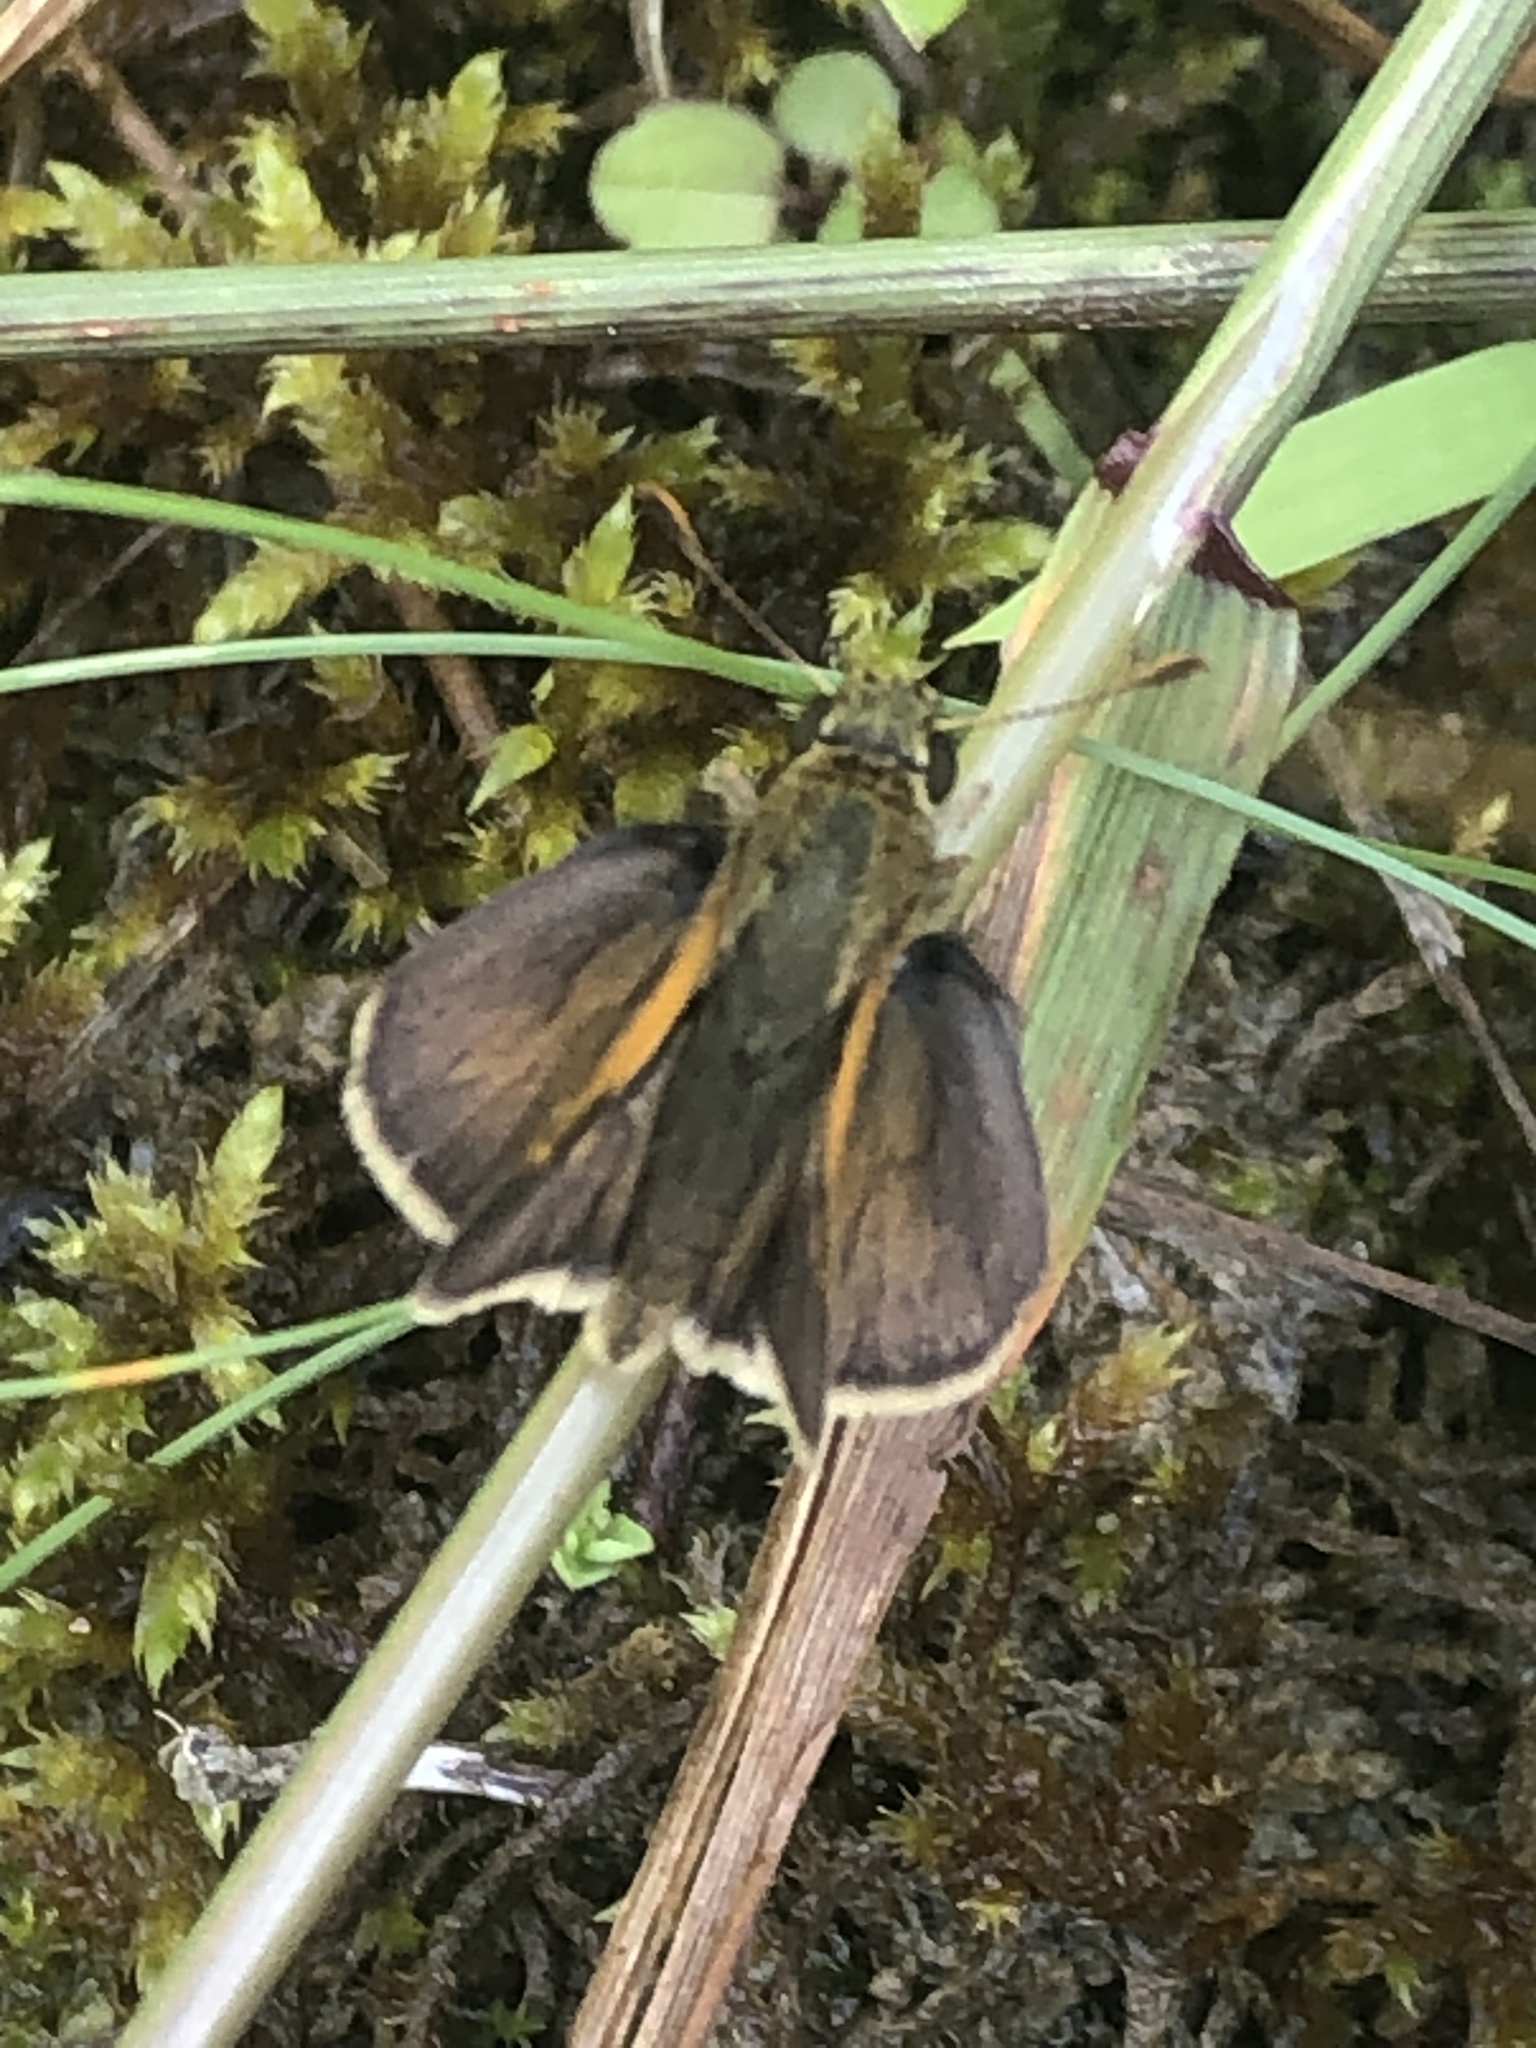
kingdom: Animalia
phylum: Arthropoda
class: Insecta
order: Lepidoptera
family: Hesperiidae
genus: Polites
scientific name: Polites themistocles
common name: Tawny-edged skipper
